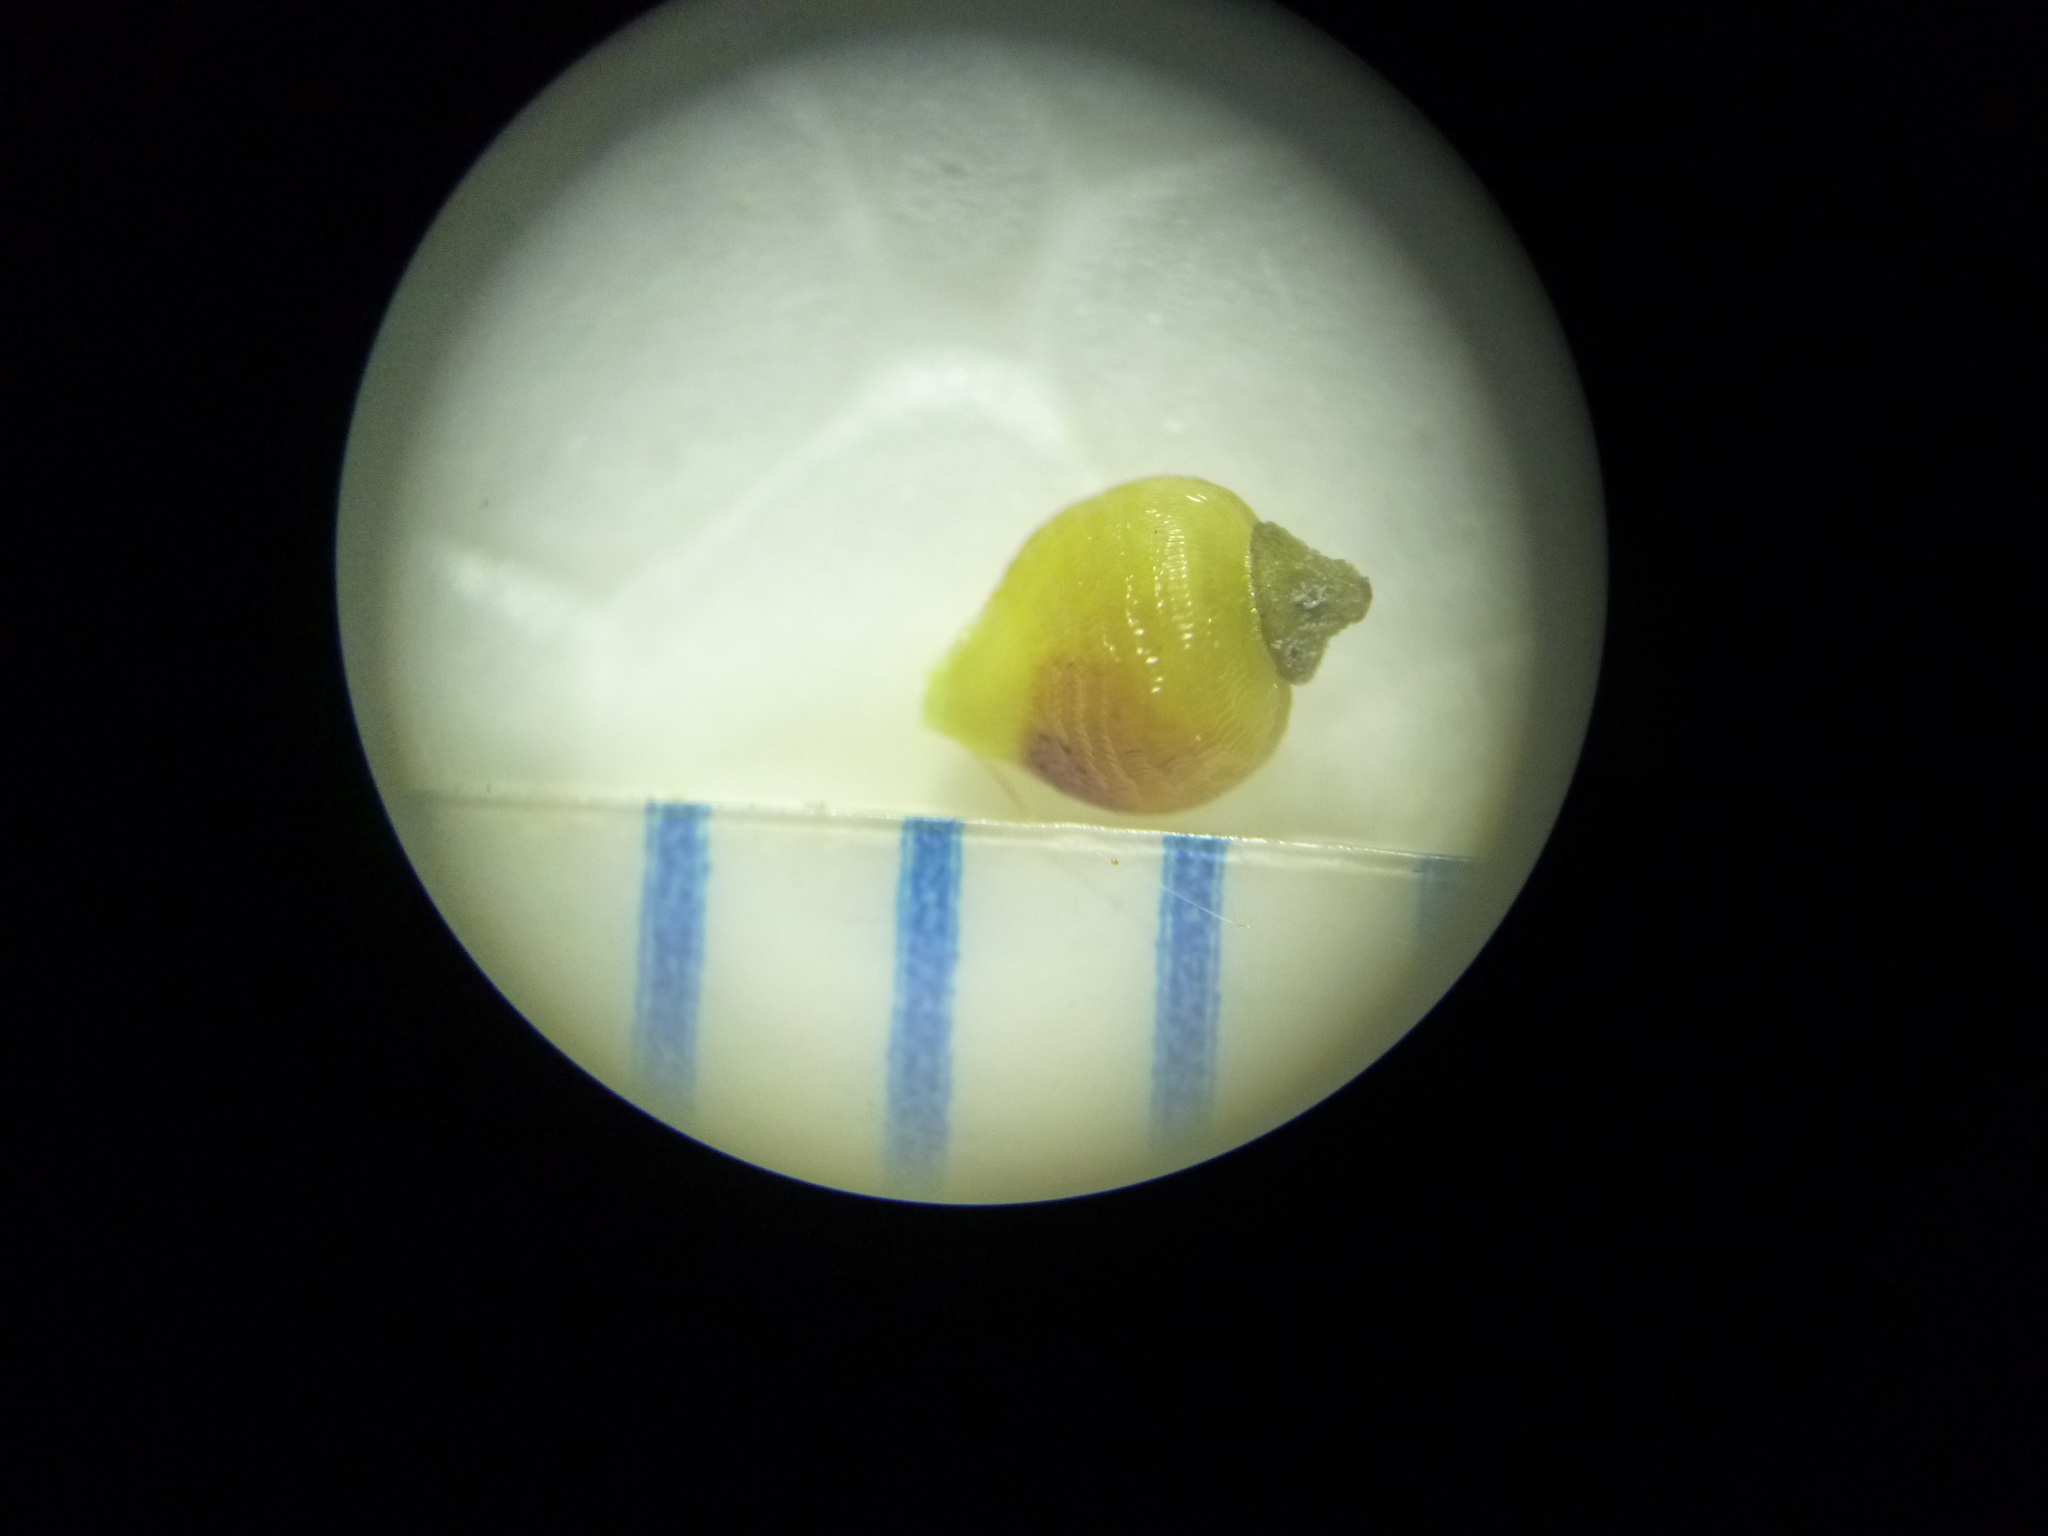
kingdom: Plantae
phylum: Tracheophyta
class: Liliopsida
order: Poales
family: Cyperaceae
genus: Rhynchospora
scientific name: Rhynchospora globularis
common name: Globe beaksedge
